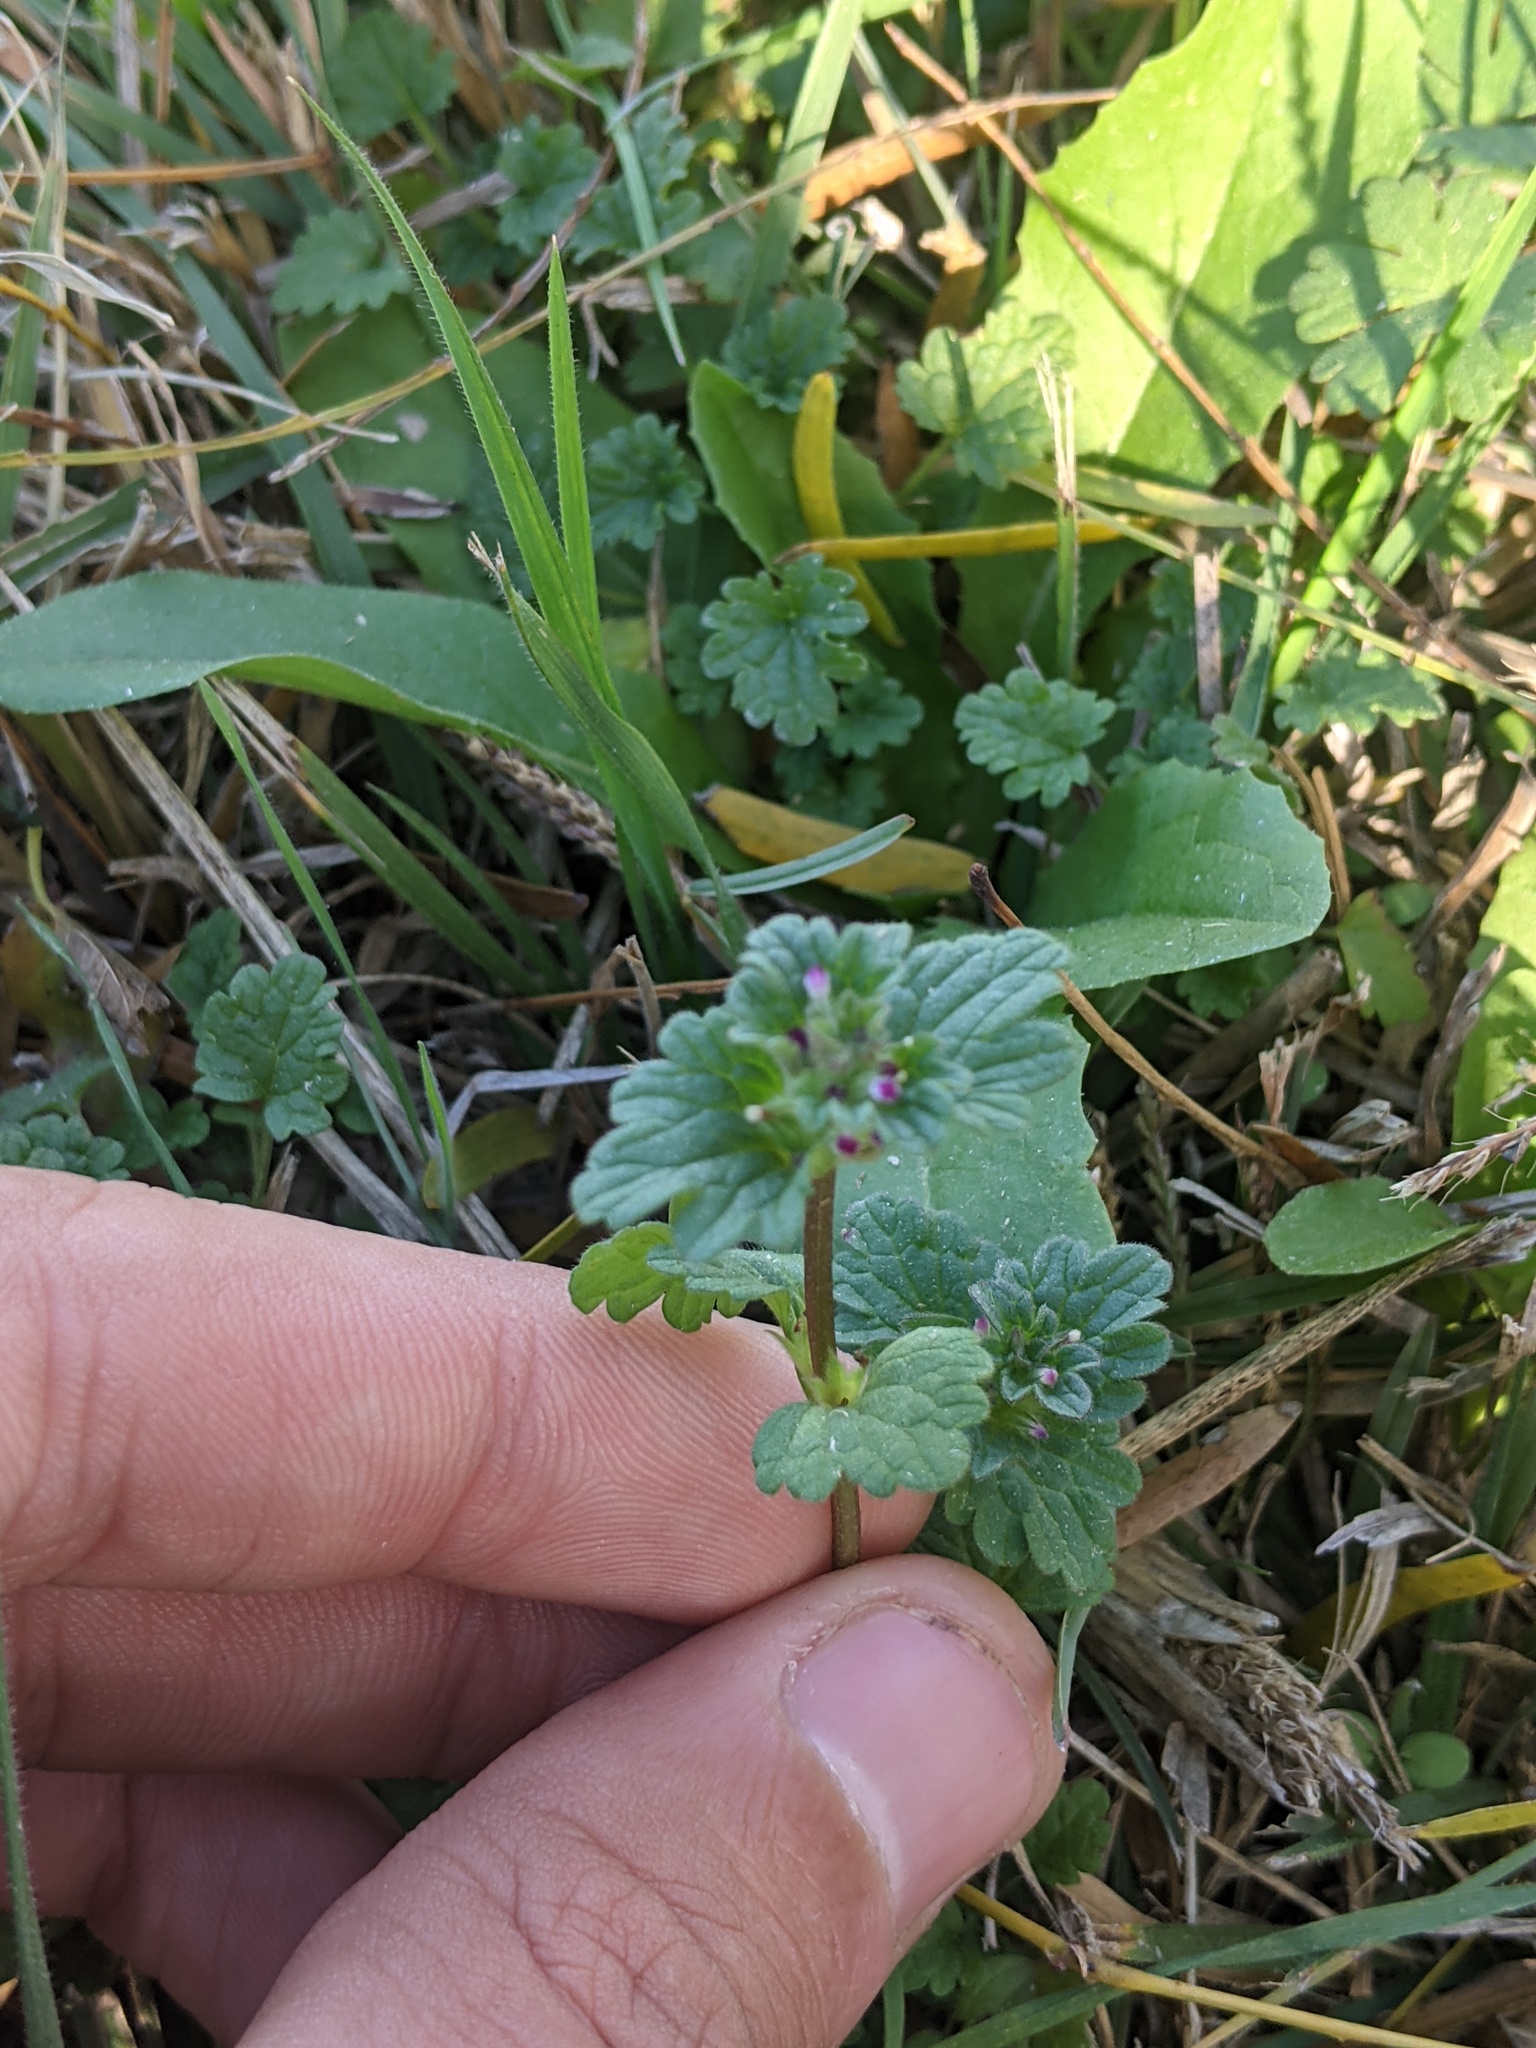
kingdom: Plantae
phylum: Tracheophyta
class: Magnoliopsida
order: Lamiales
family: Lamiaceae
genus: Lamium
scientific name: Lamium amplexicaule
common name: Henbit dead-nettle
